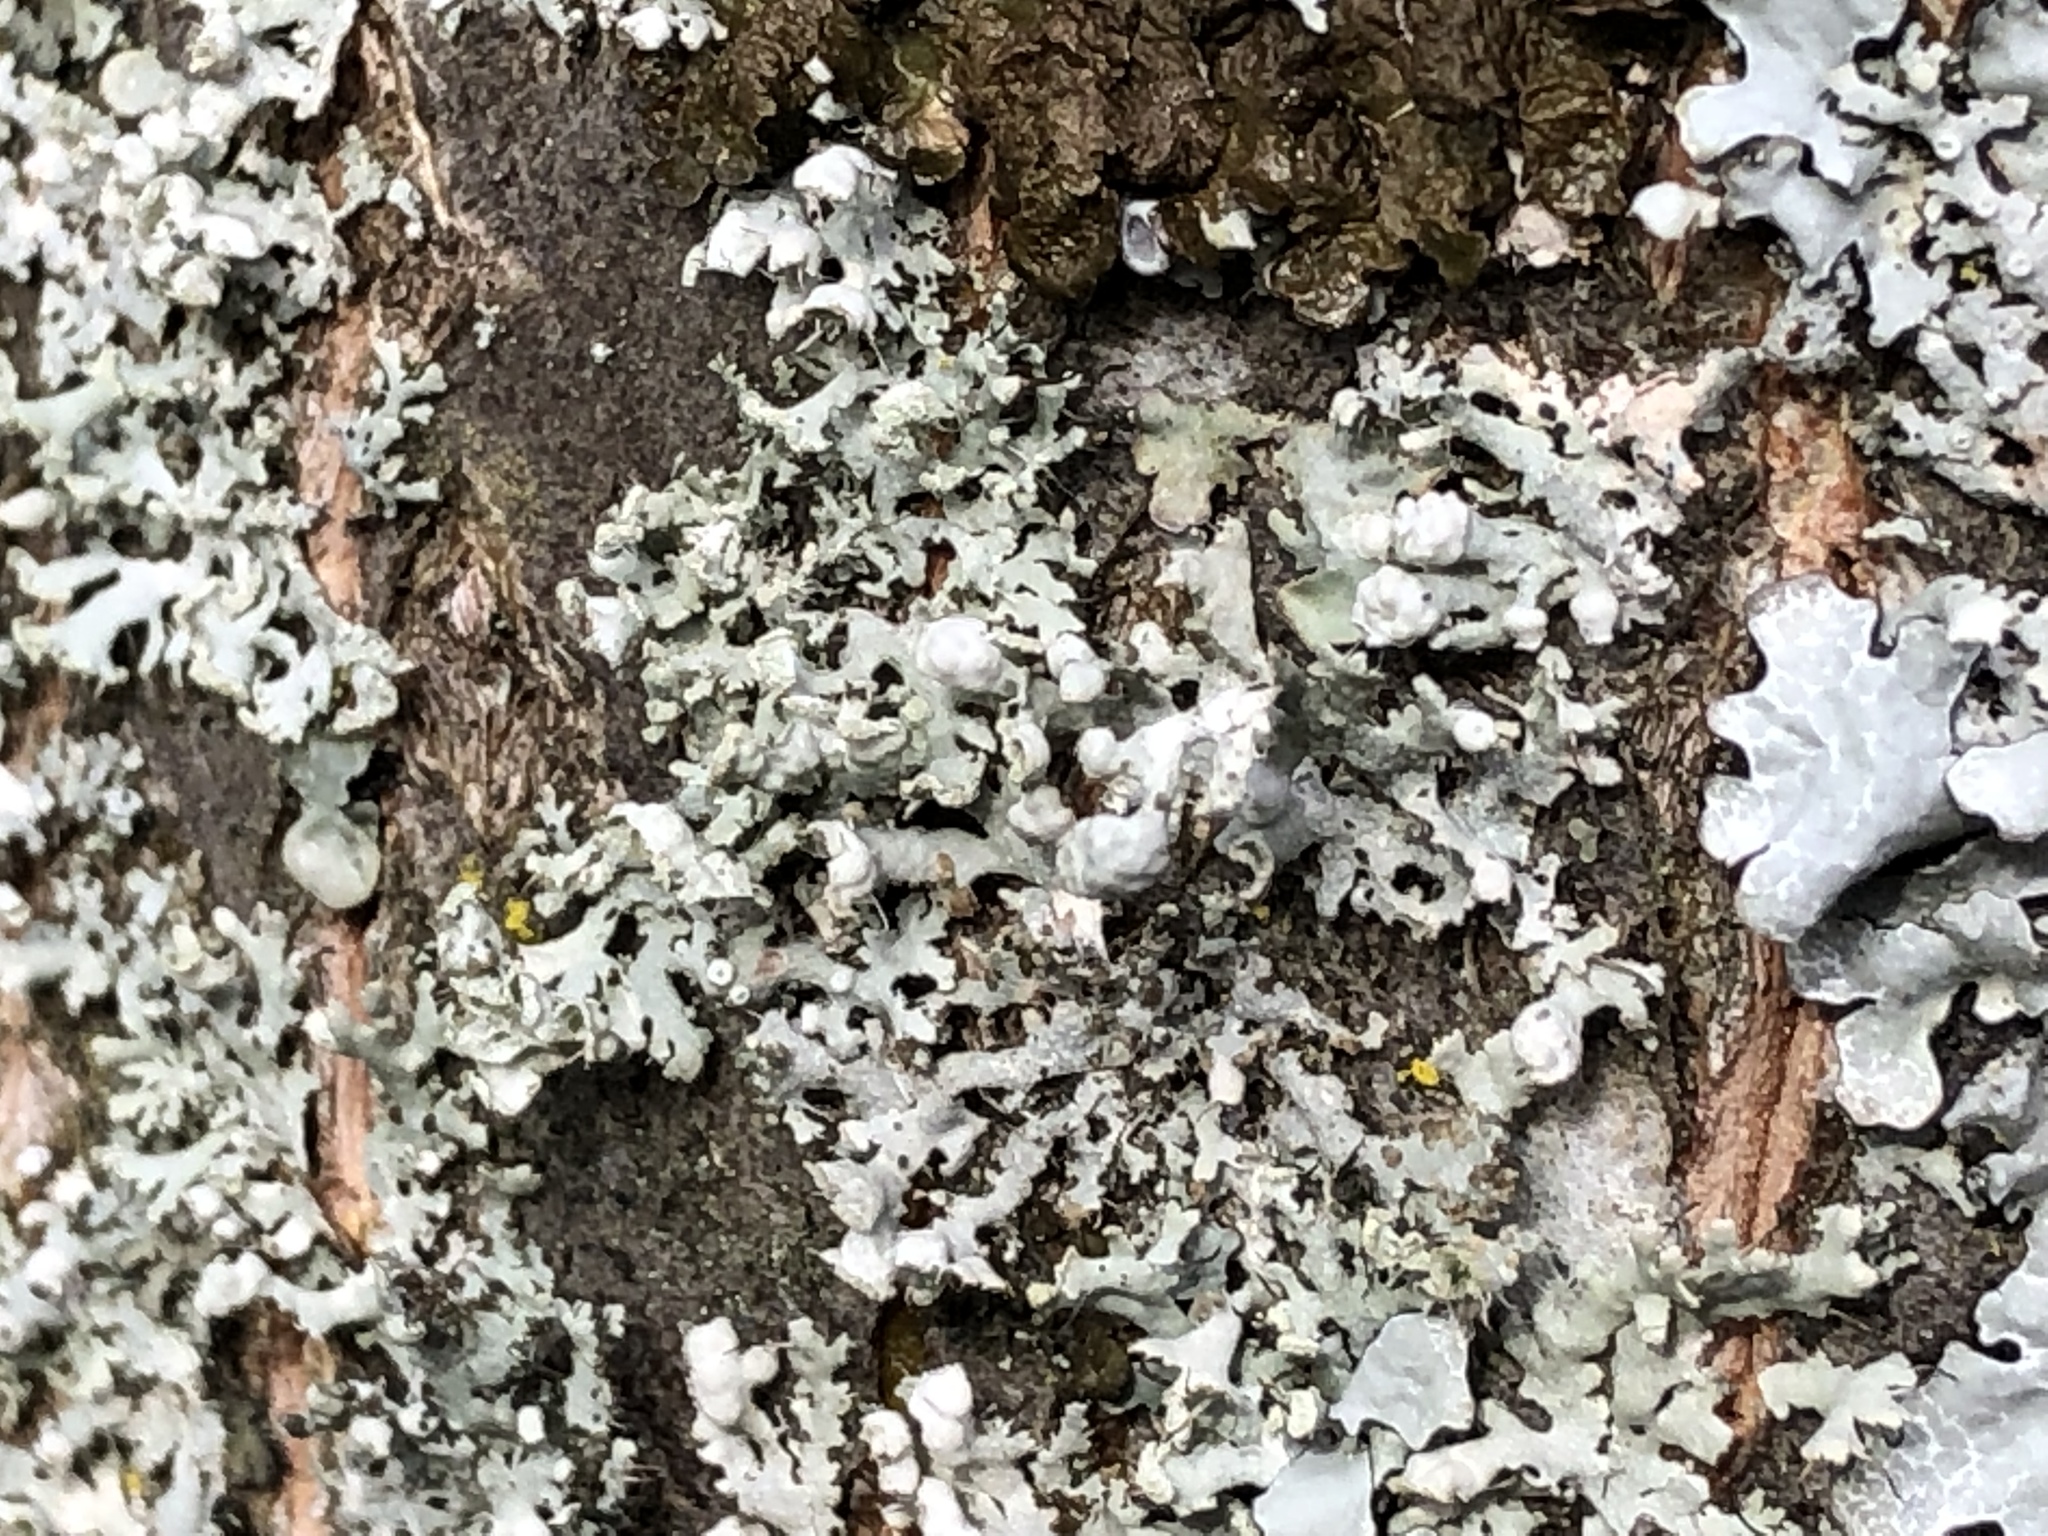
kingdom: Fungi
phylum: Ascomycota
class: Lecanoromycetes
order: Caliciales
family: Physciaceae
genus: Physcia
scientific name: Physcia adscendens
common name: Hooded rosette lichen
